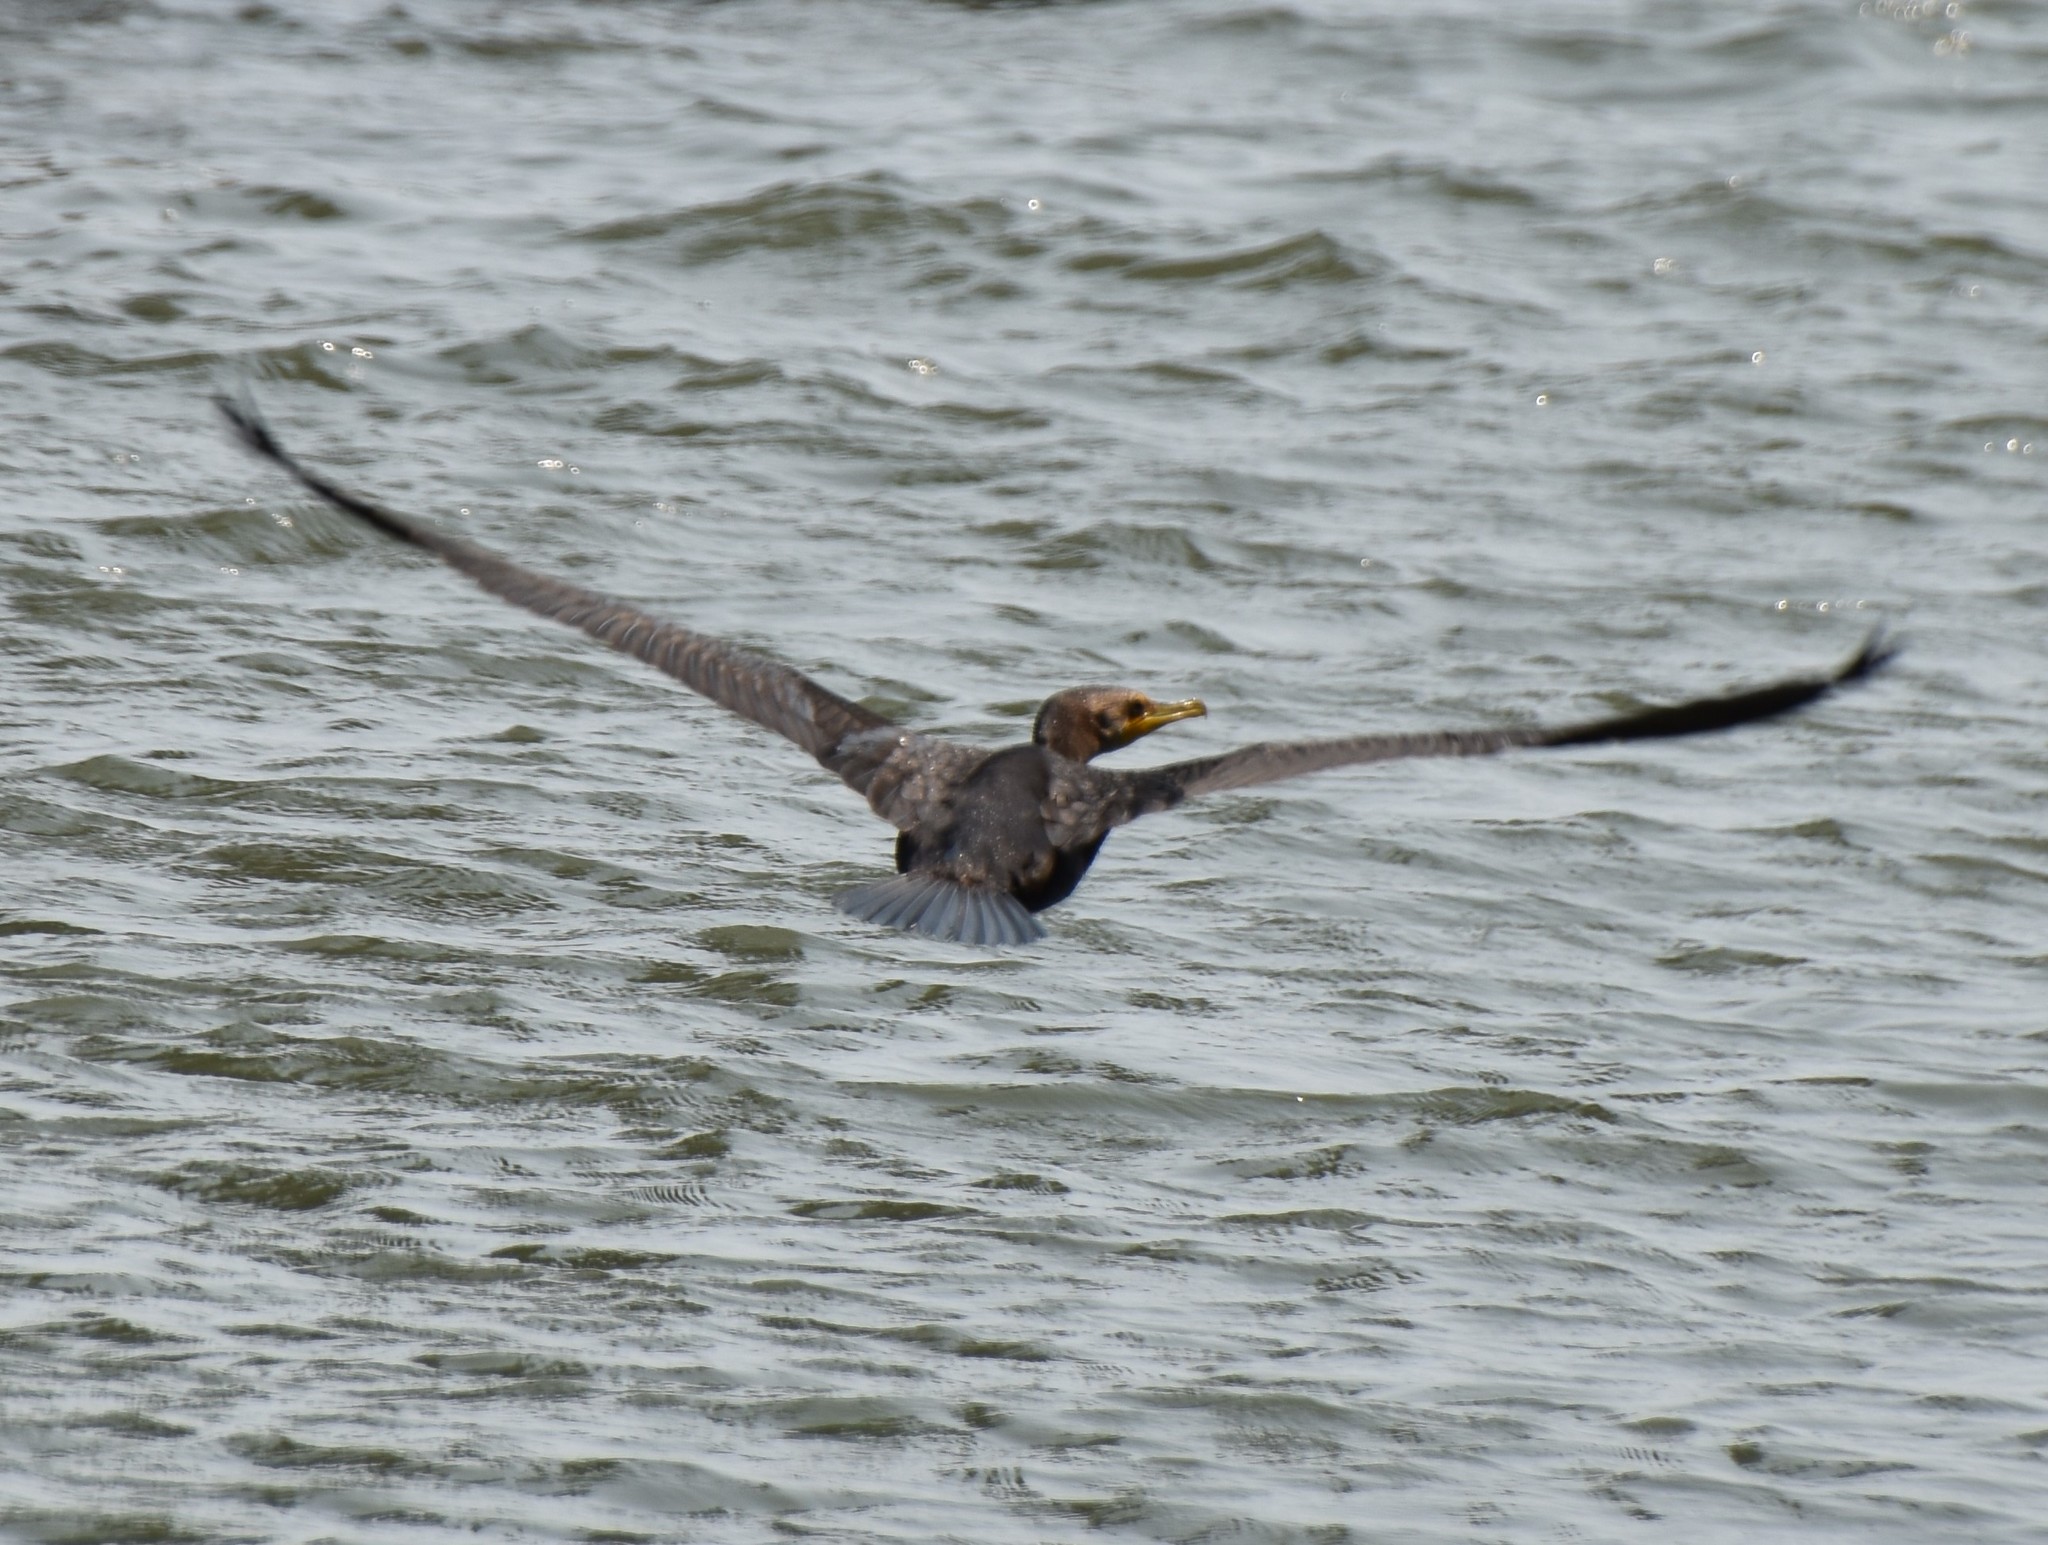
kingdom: Animalia
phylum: Chordata
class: Aves
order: Suliformes
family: Phalacrocoracidae
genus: Phalacrocorax
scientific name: Phalacrocorax auritus
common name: Double-crested cormorant
